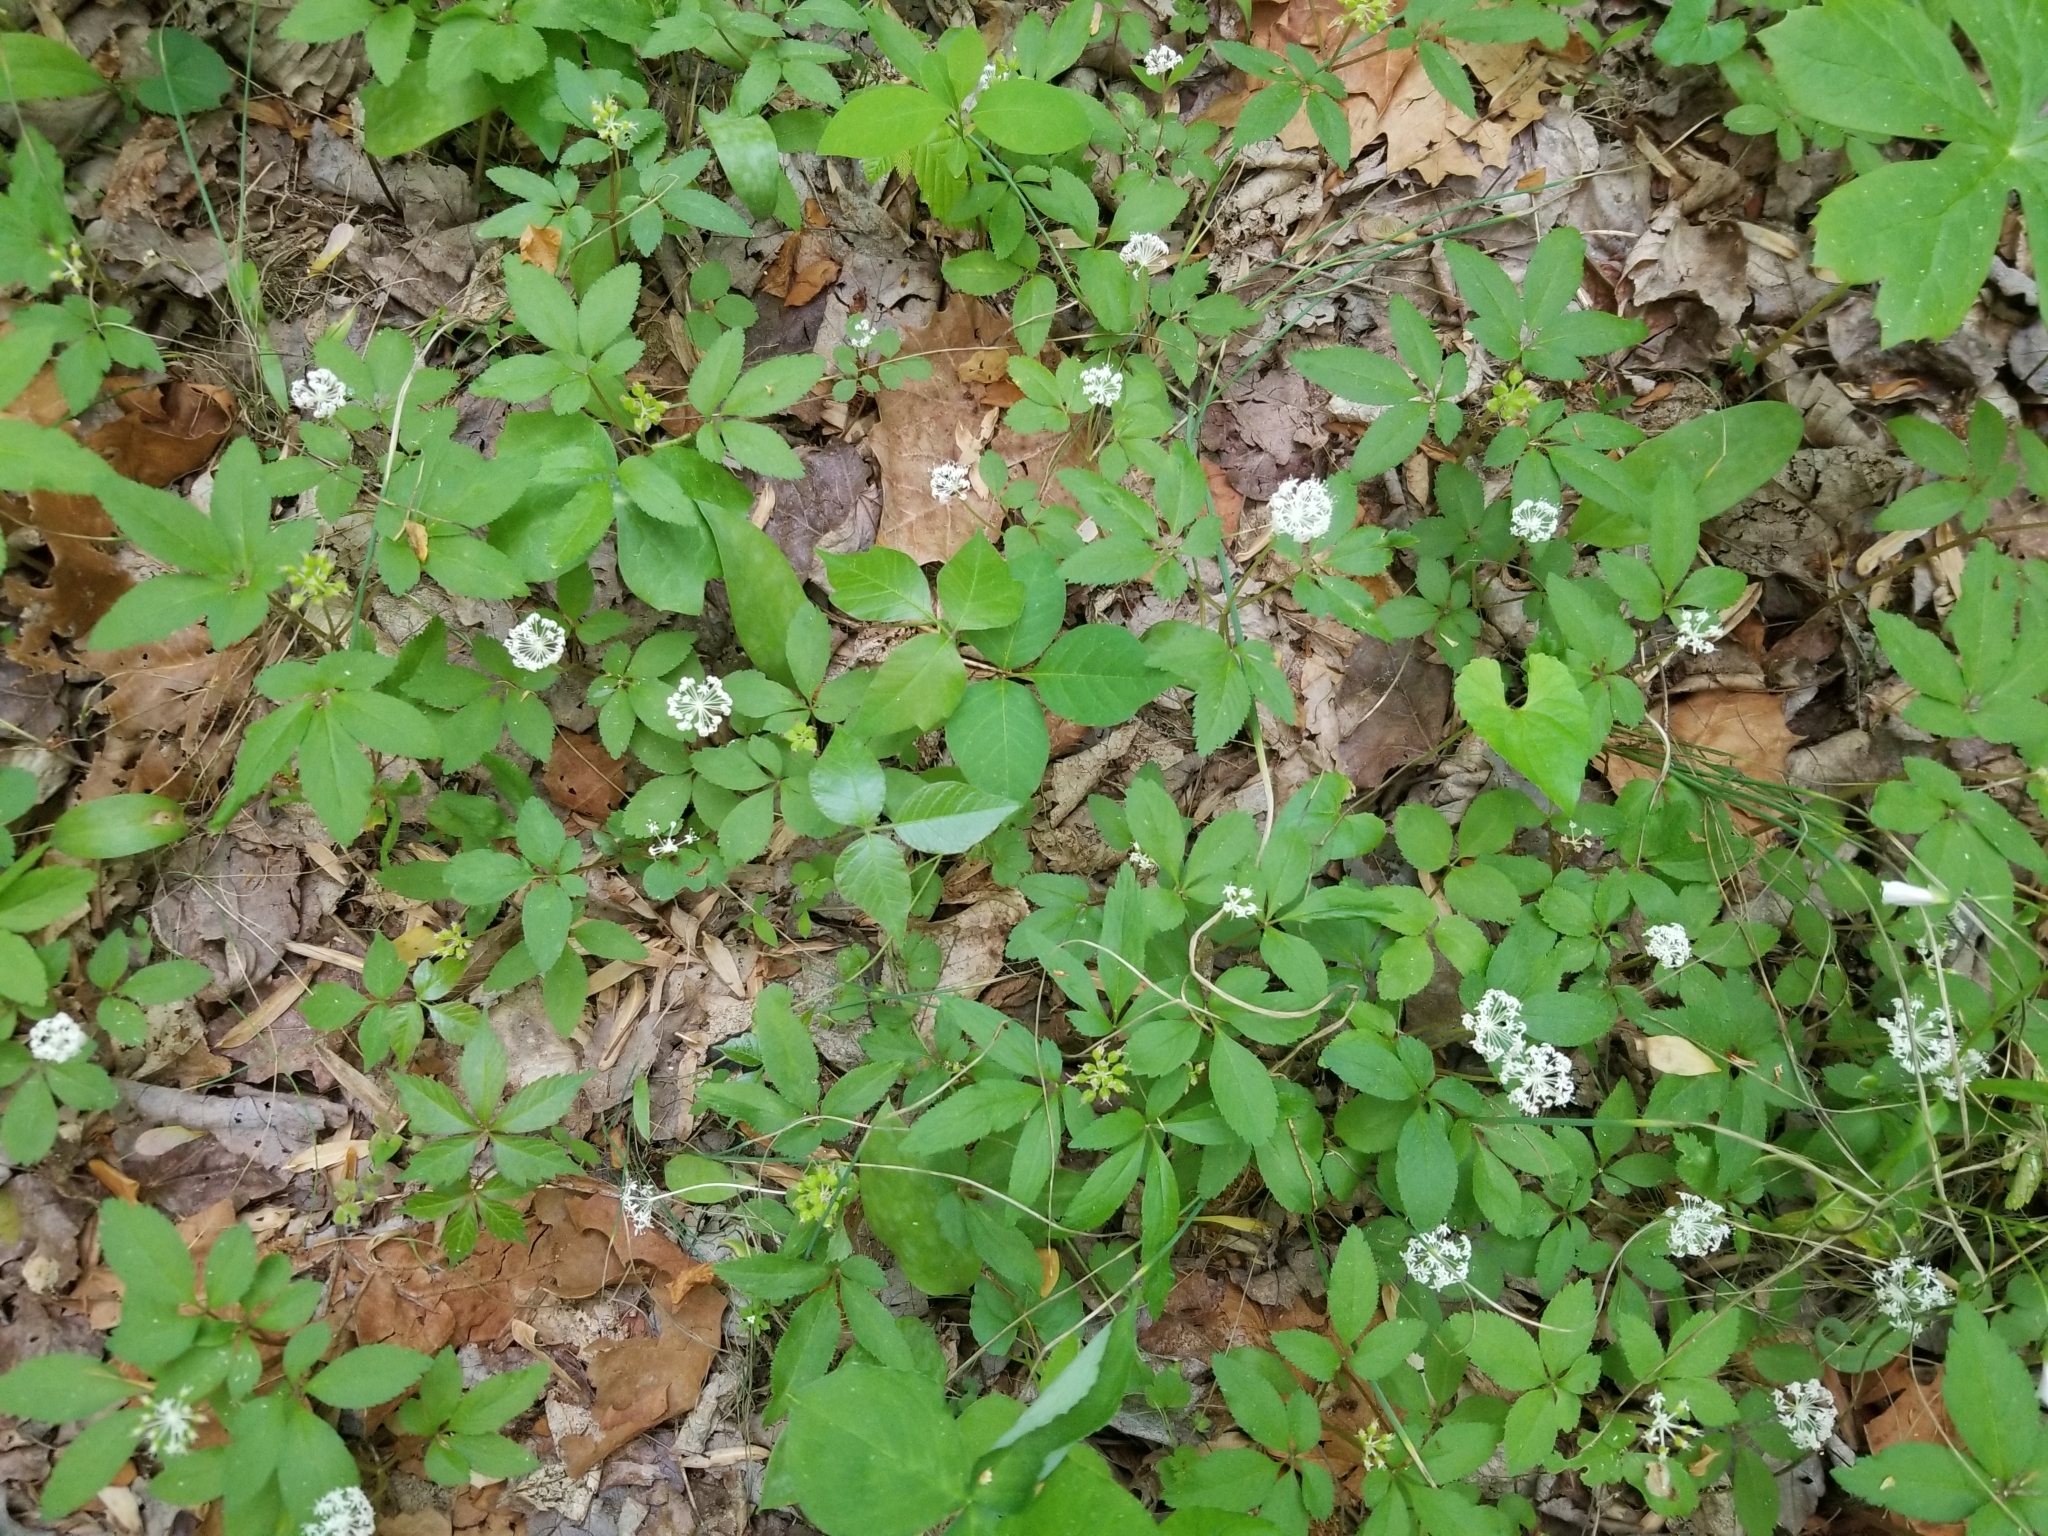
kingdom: Plantae
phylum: Tracheophyta
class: Magnoliopsida
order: Apiales
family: Araliaceae
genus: Panax
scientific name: Panax trifolius
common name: Dwarf ginseng
